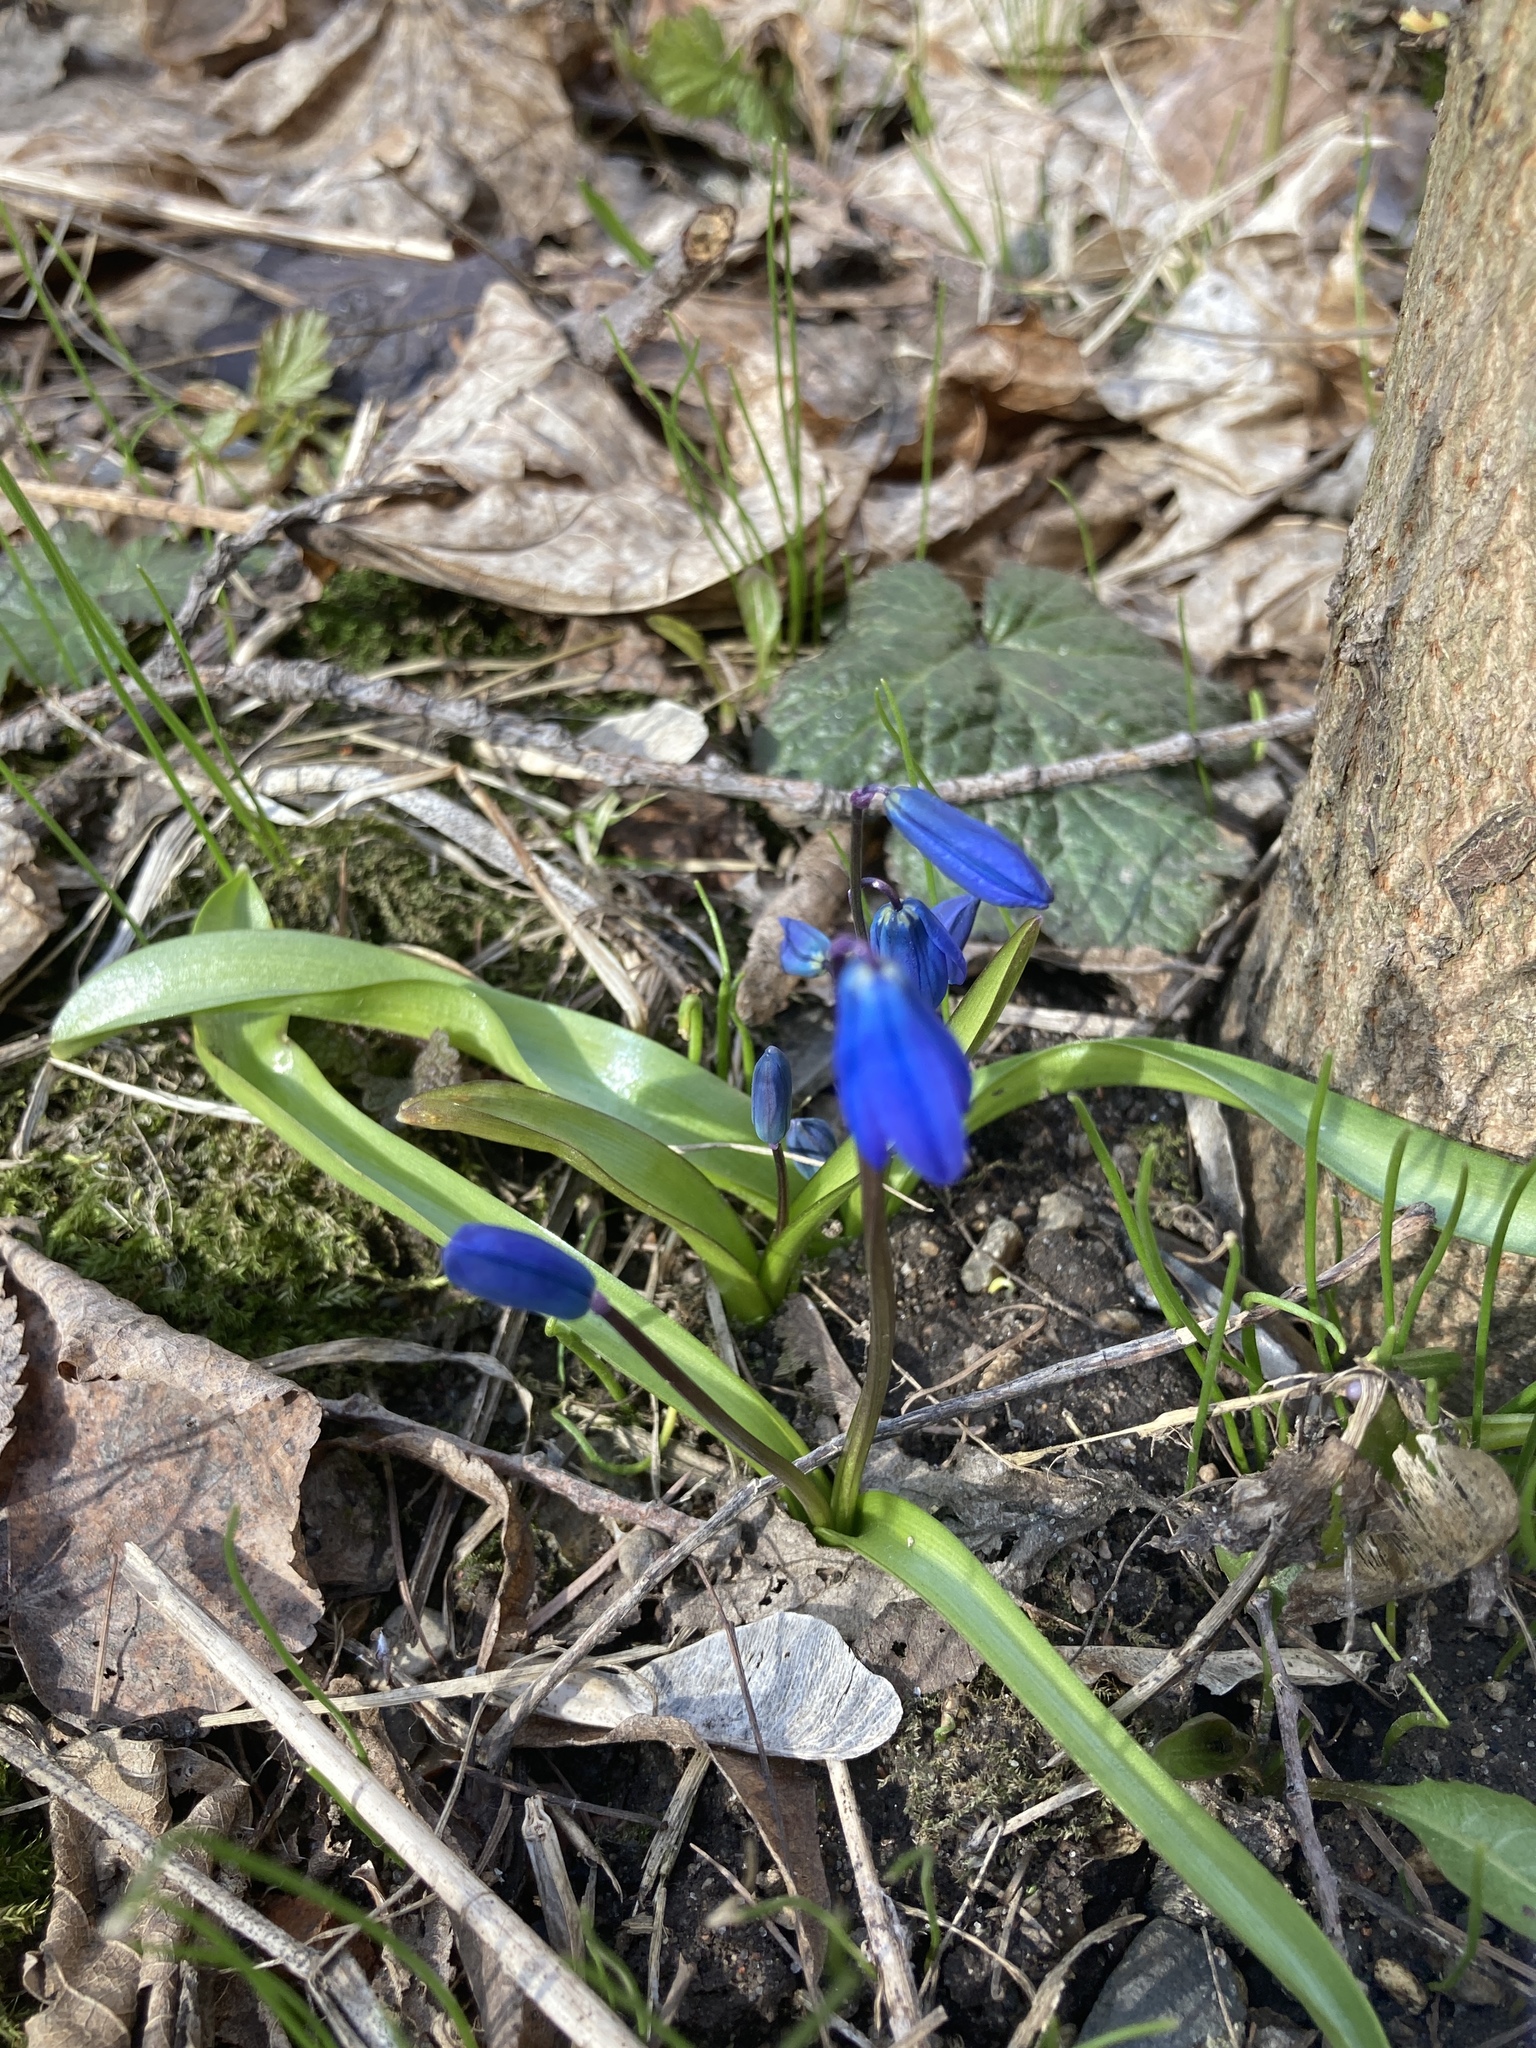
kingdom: Plantae
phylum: Tracheophyta
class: Liliopsida
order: Asparagales
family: Asparagaceae
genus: Scilla
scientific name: Scilla siberica
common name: Siberian squill
